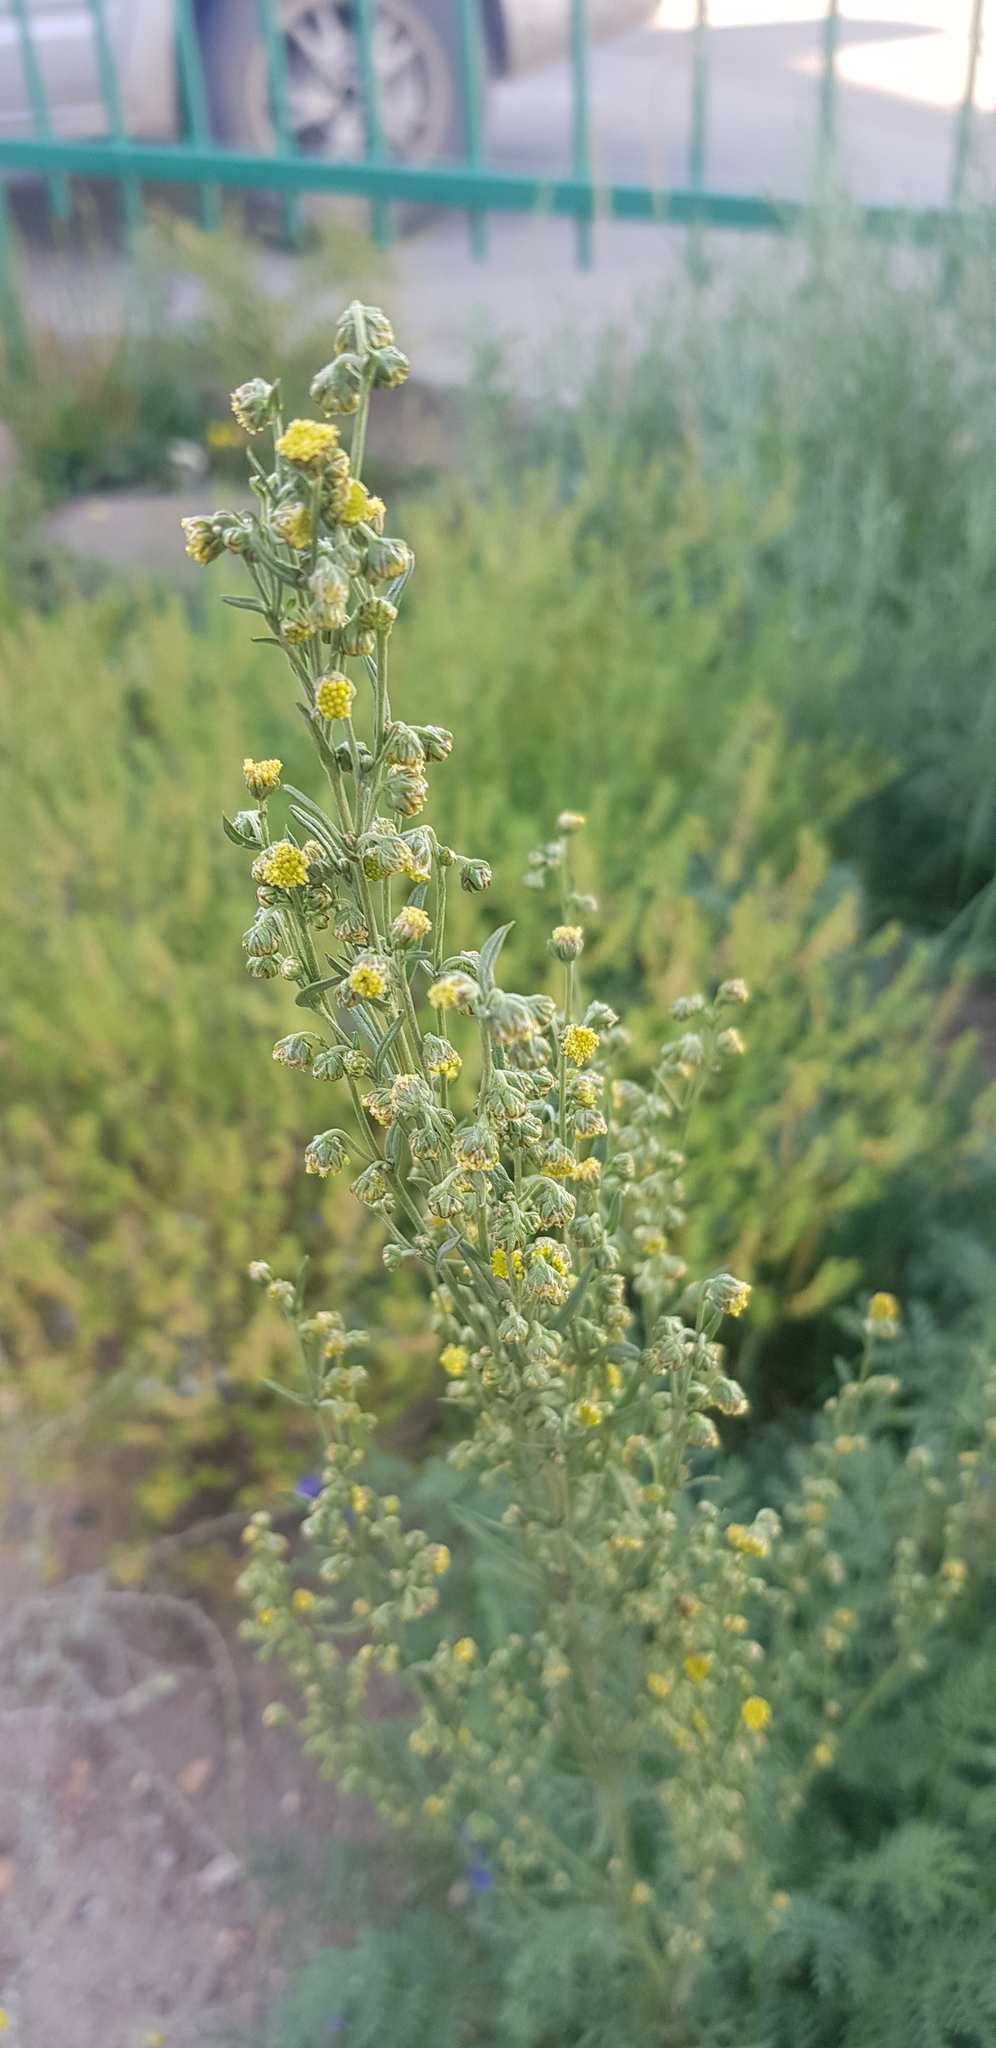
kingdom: Plantae
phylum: Tracheophyta
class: Magnoliopsida
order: Asterales
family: Asteraceae
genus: Artemisia
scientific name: Artemisia macrocephala
